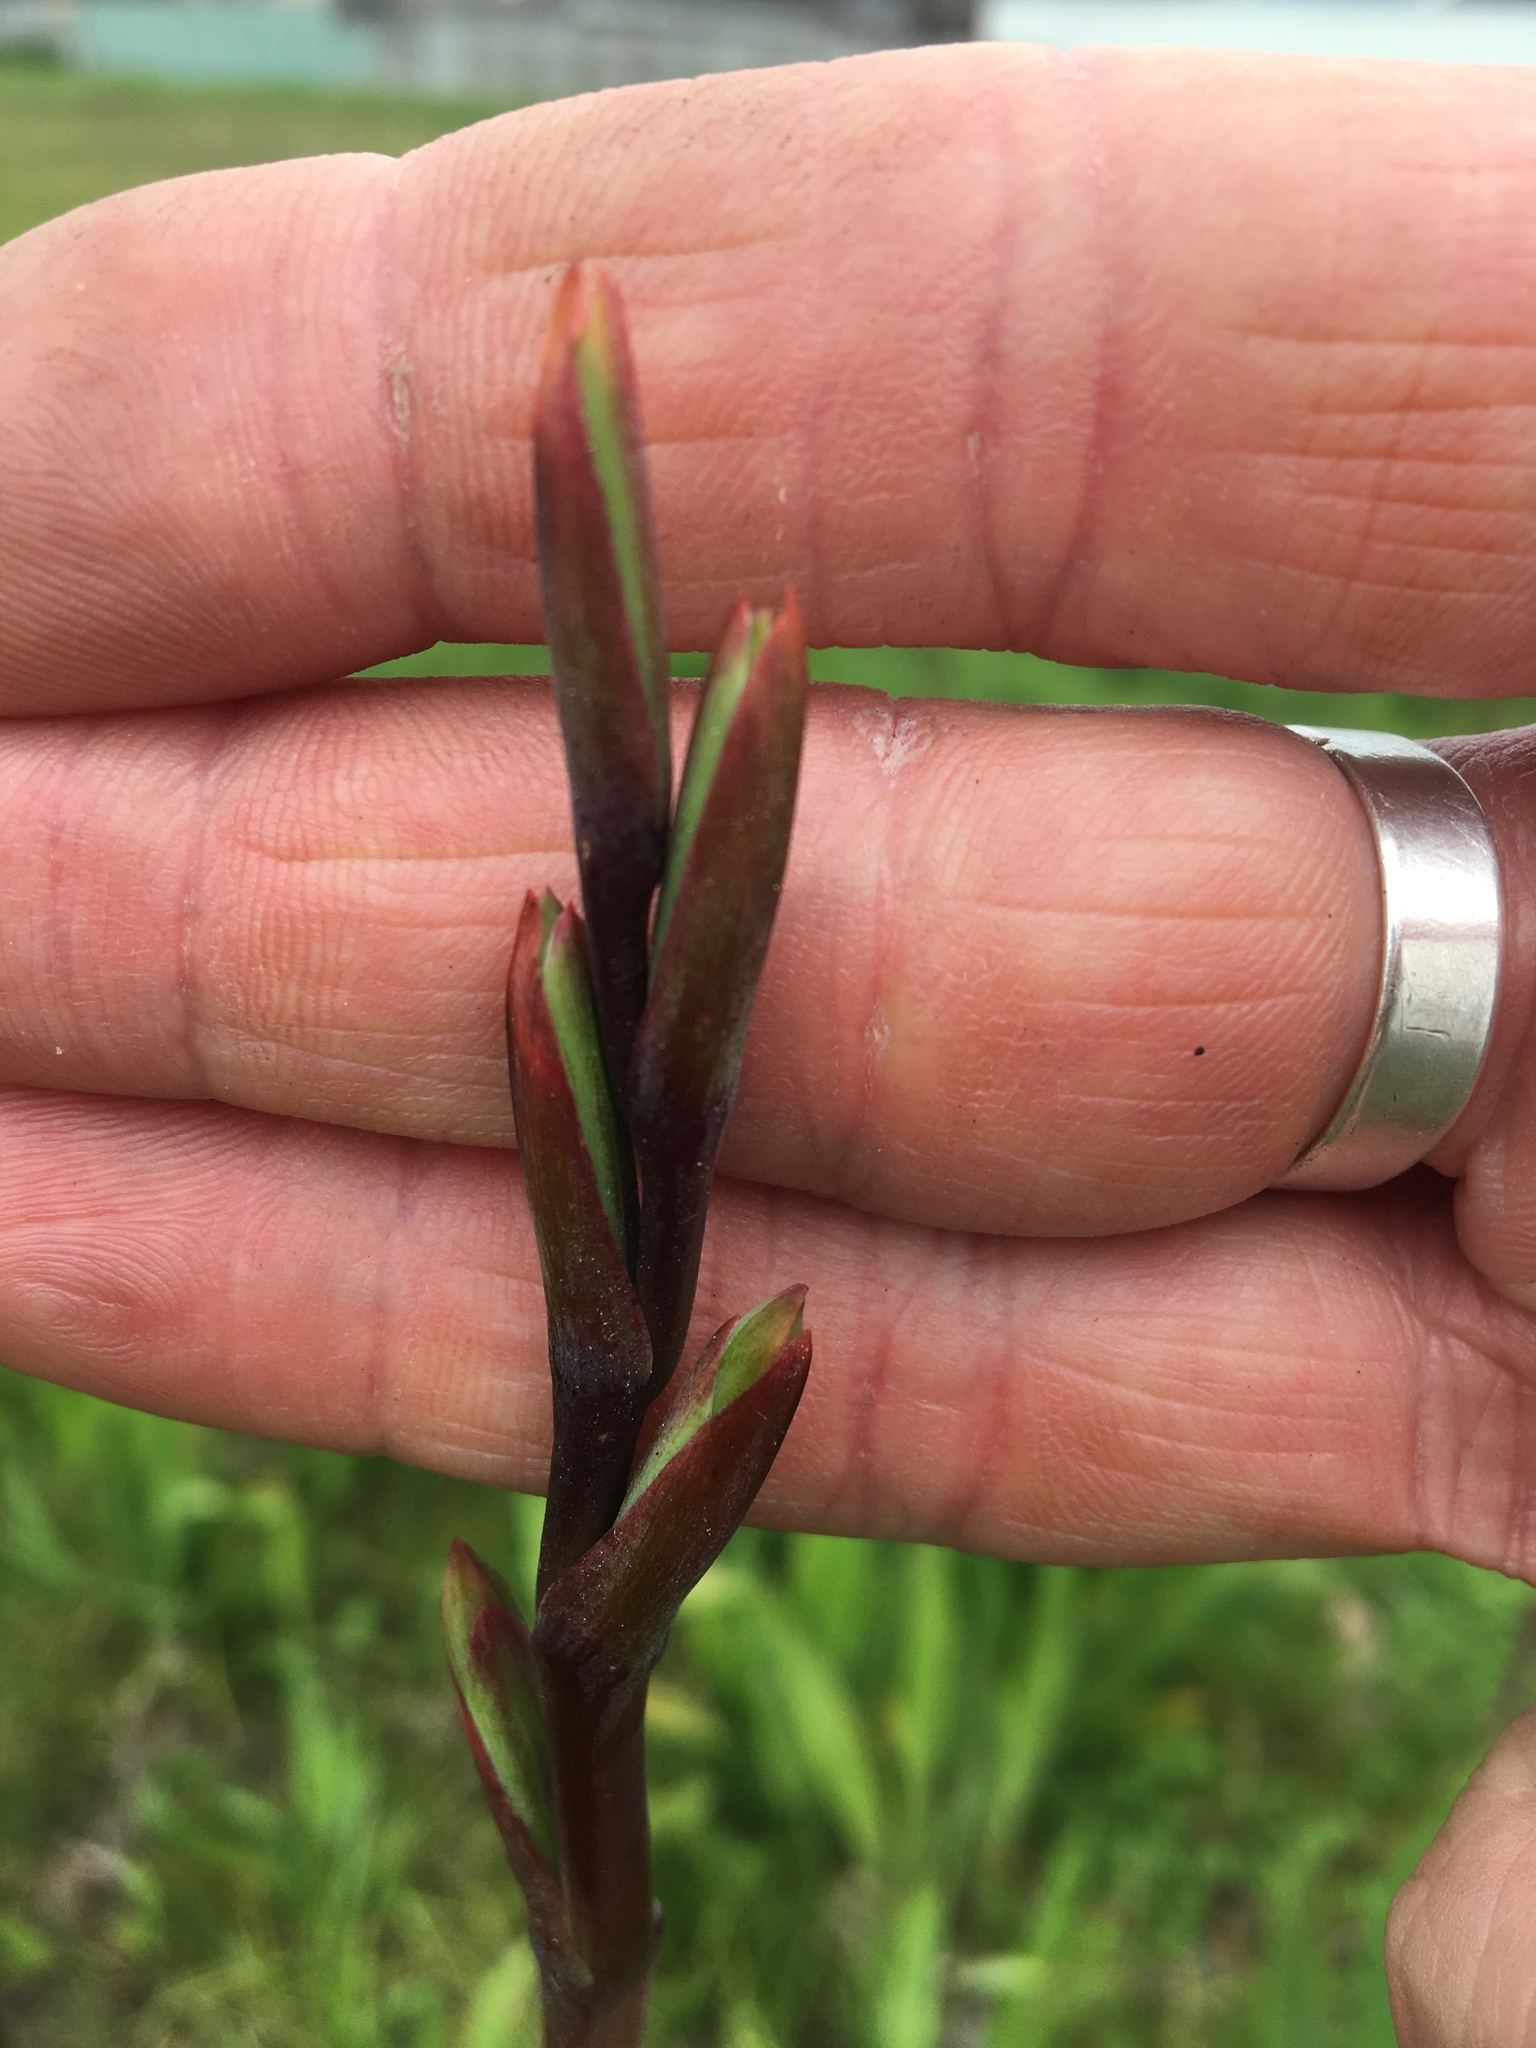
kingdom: Plantae
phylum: Tracheophyta
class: Liliopsida
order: Asparagales
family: Iridaceae
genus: Watsonia
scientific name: Watsonia meriana
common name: Bulbil bugle-lily
